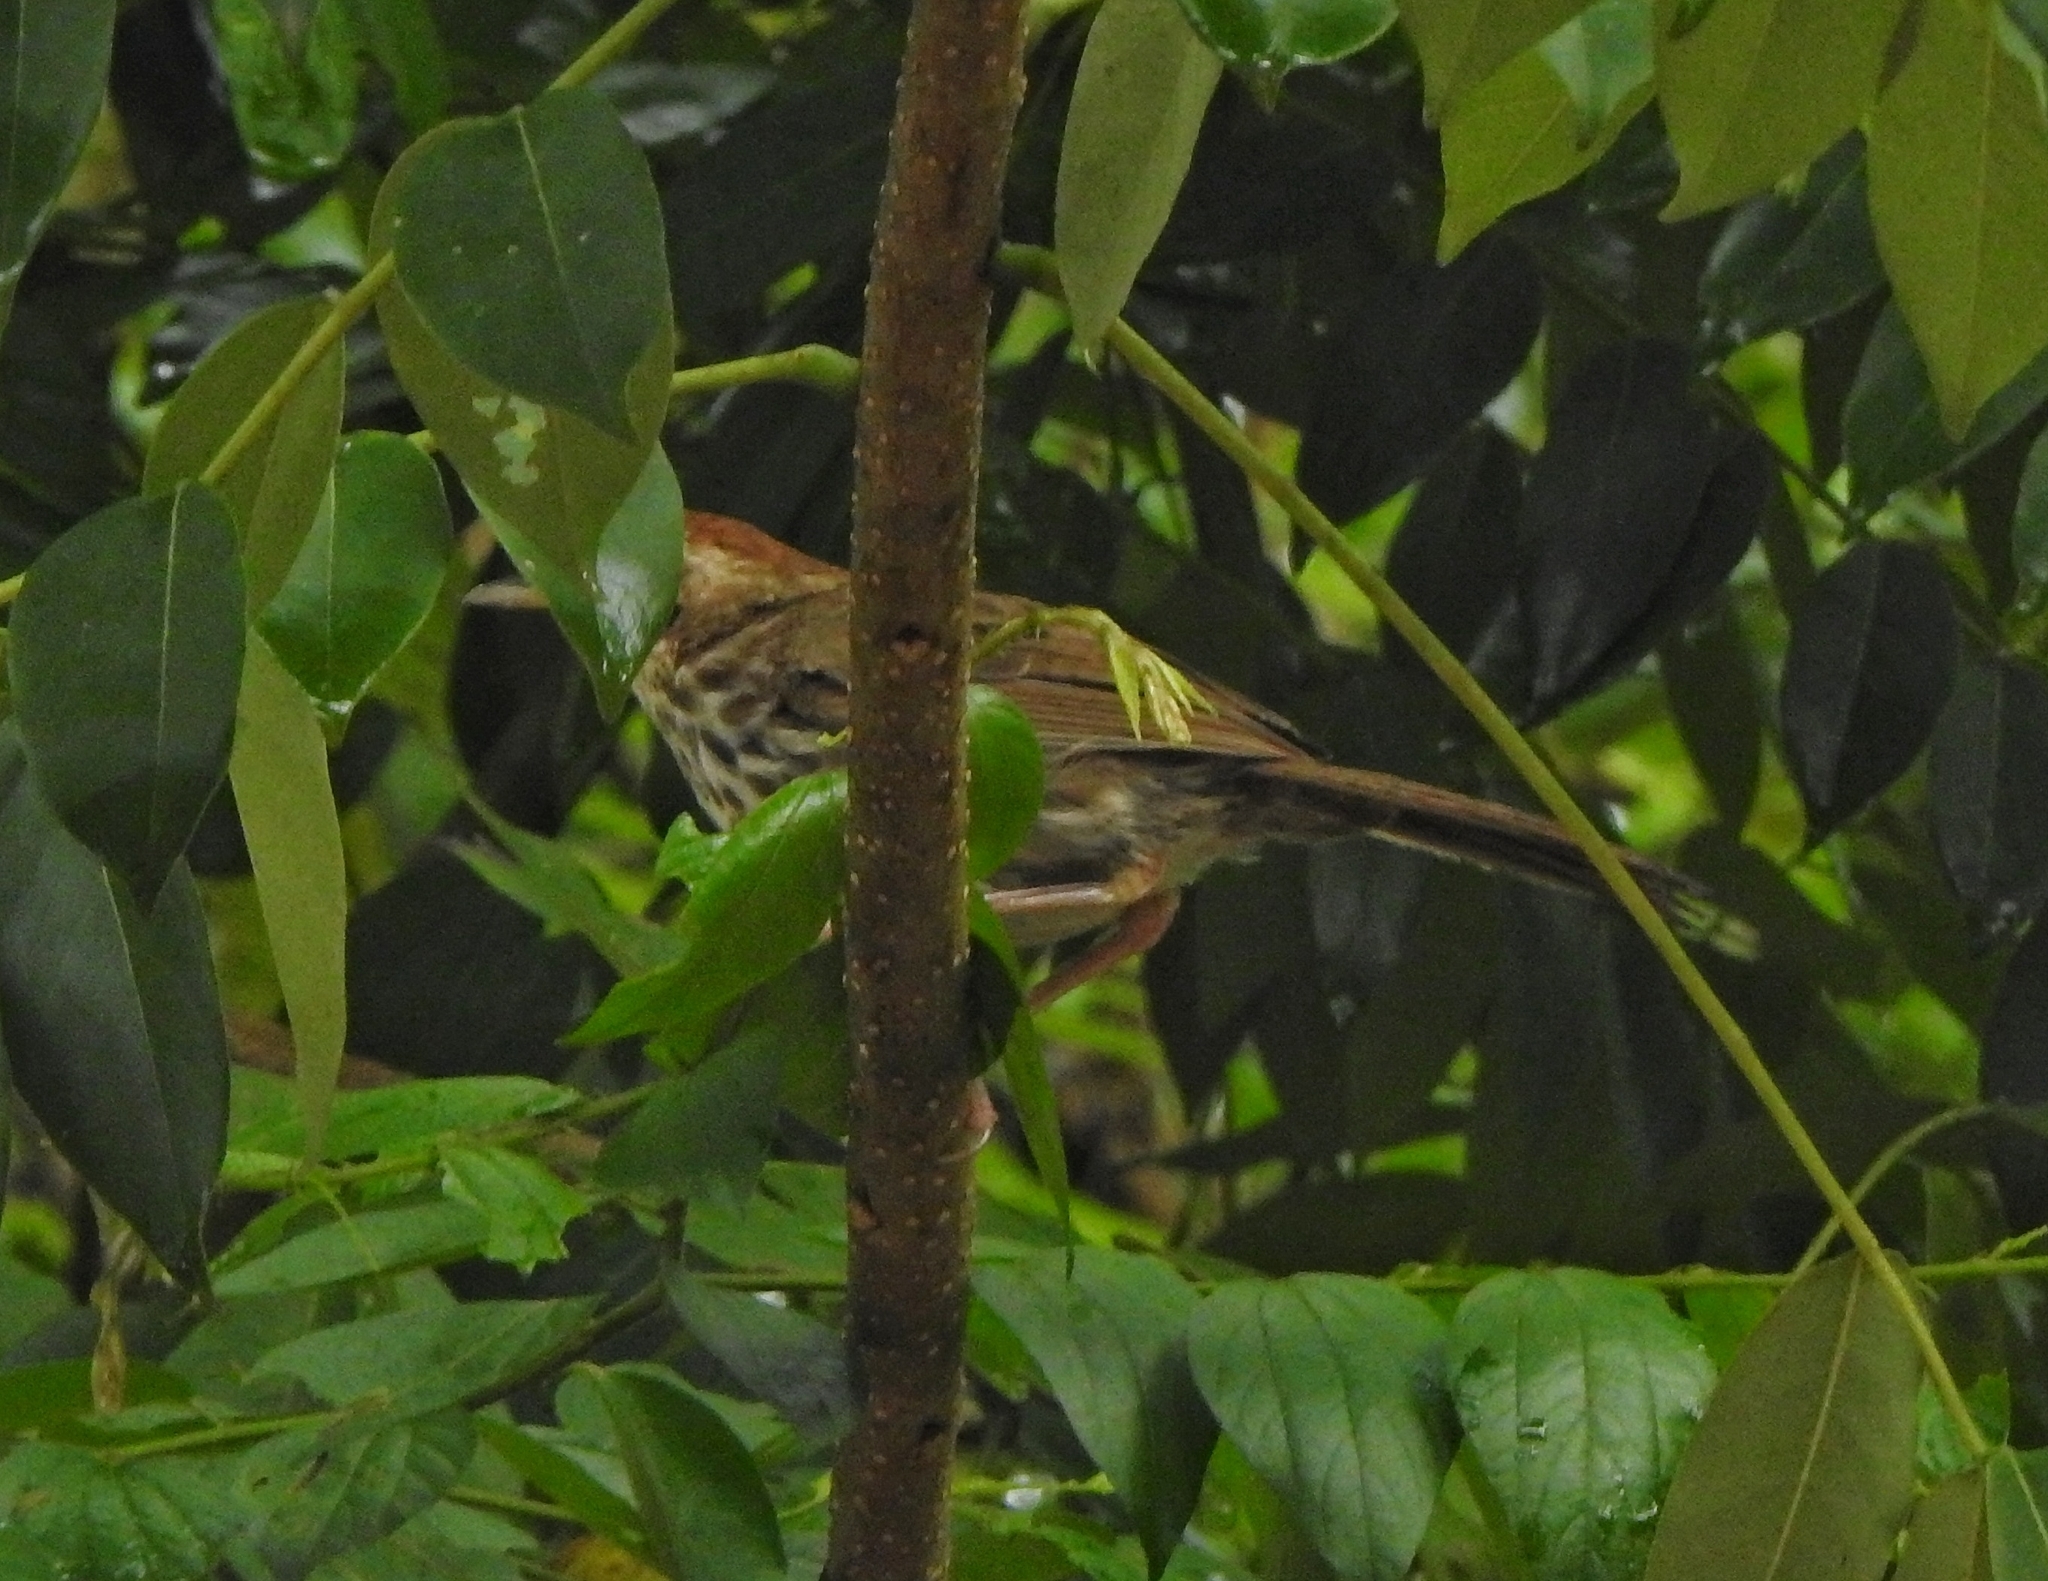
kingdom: Animalia
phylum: Chordata
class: Aves
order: Passeriformes
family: Pellorneidae
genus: Pellorneum
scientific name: Pellorneum ruficeps
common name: Puff-throated babbler
